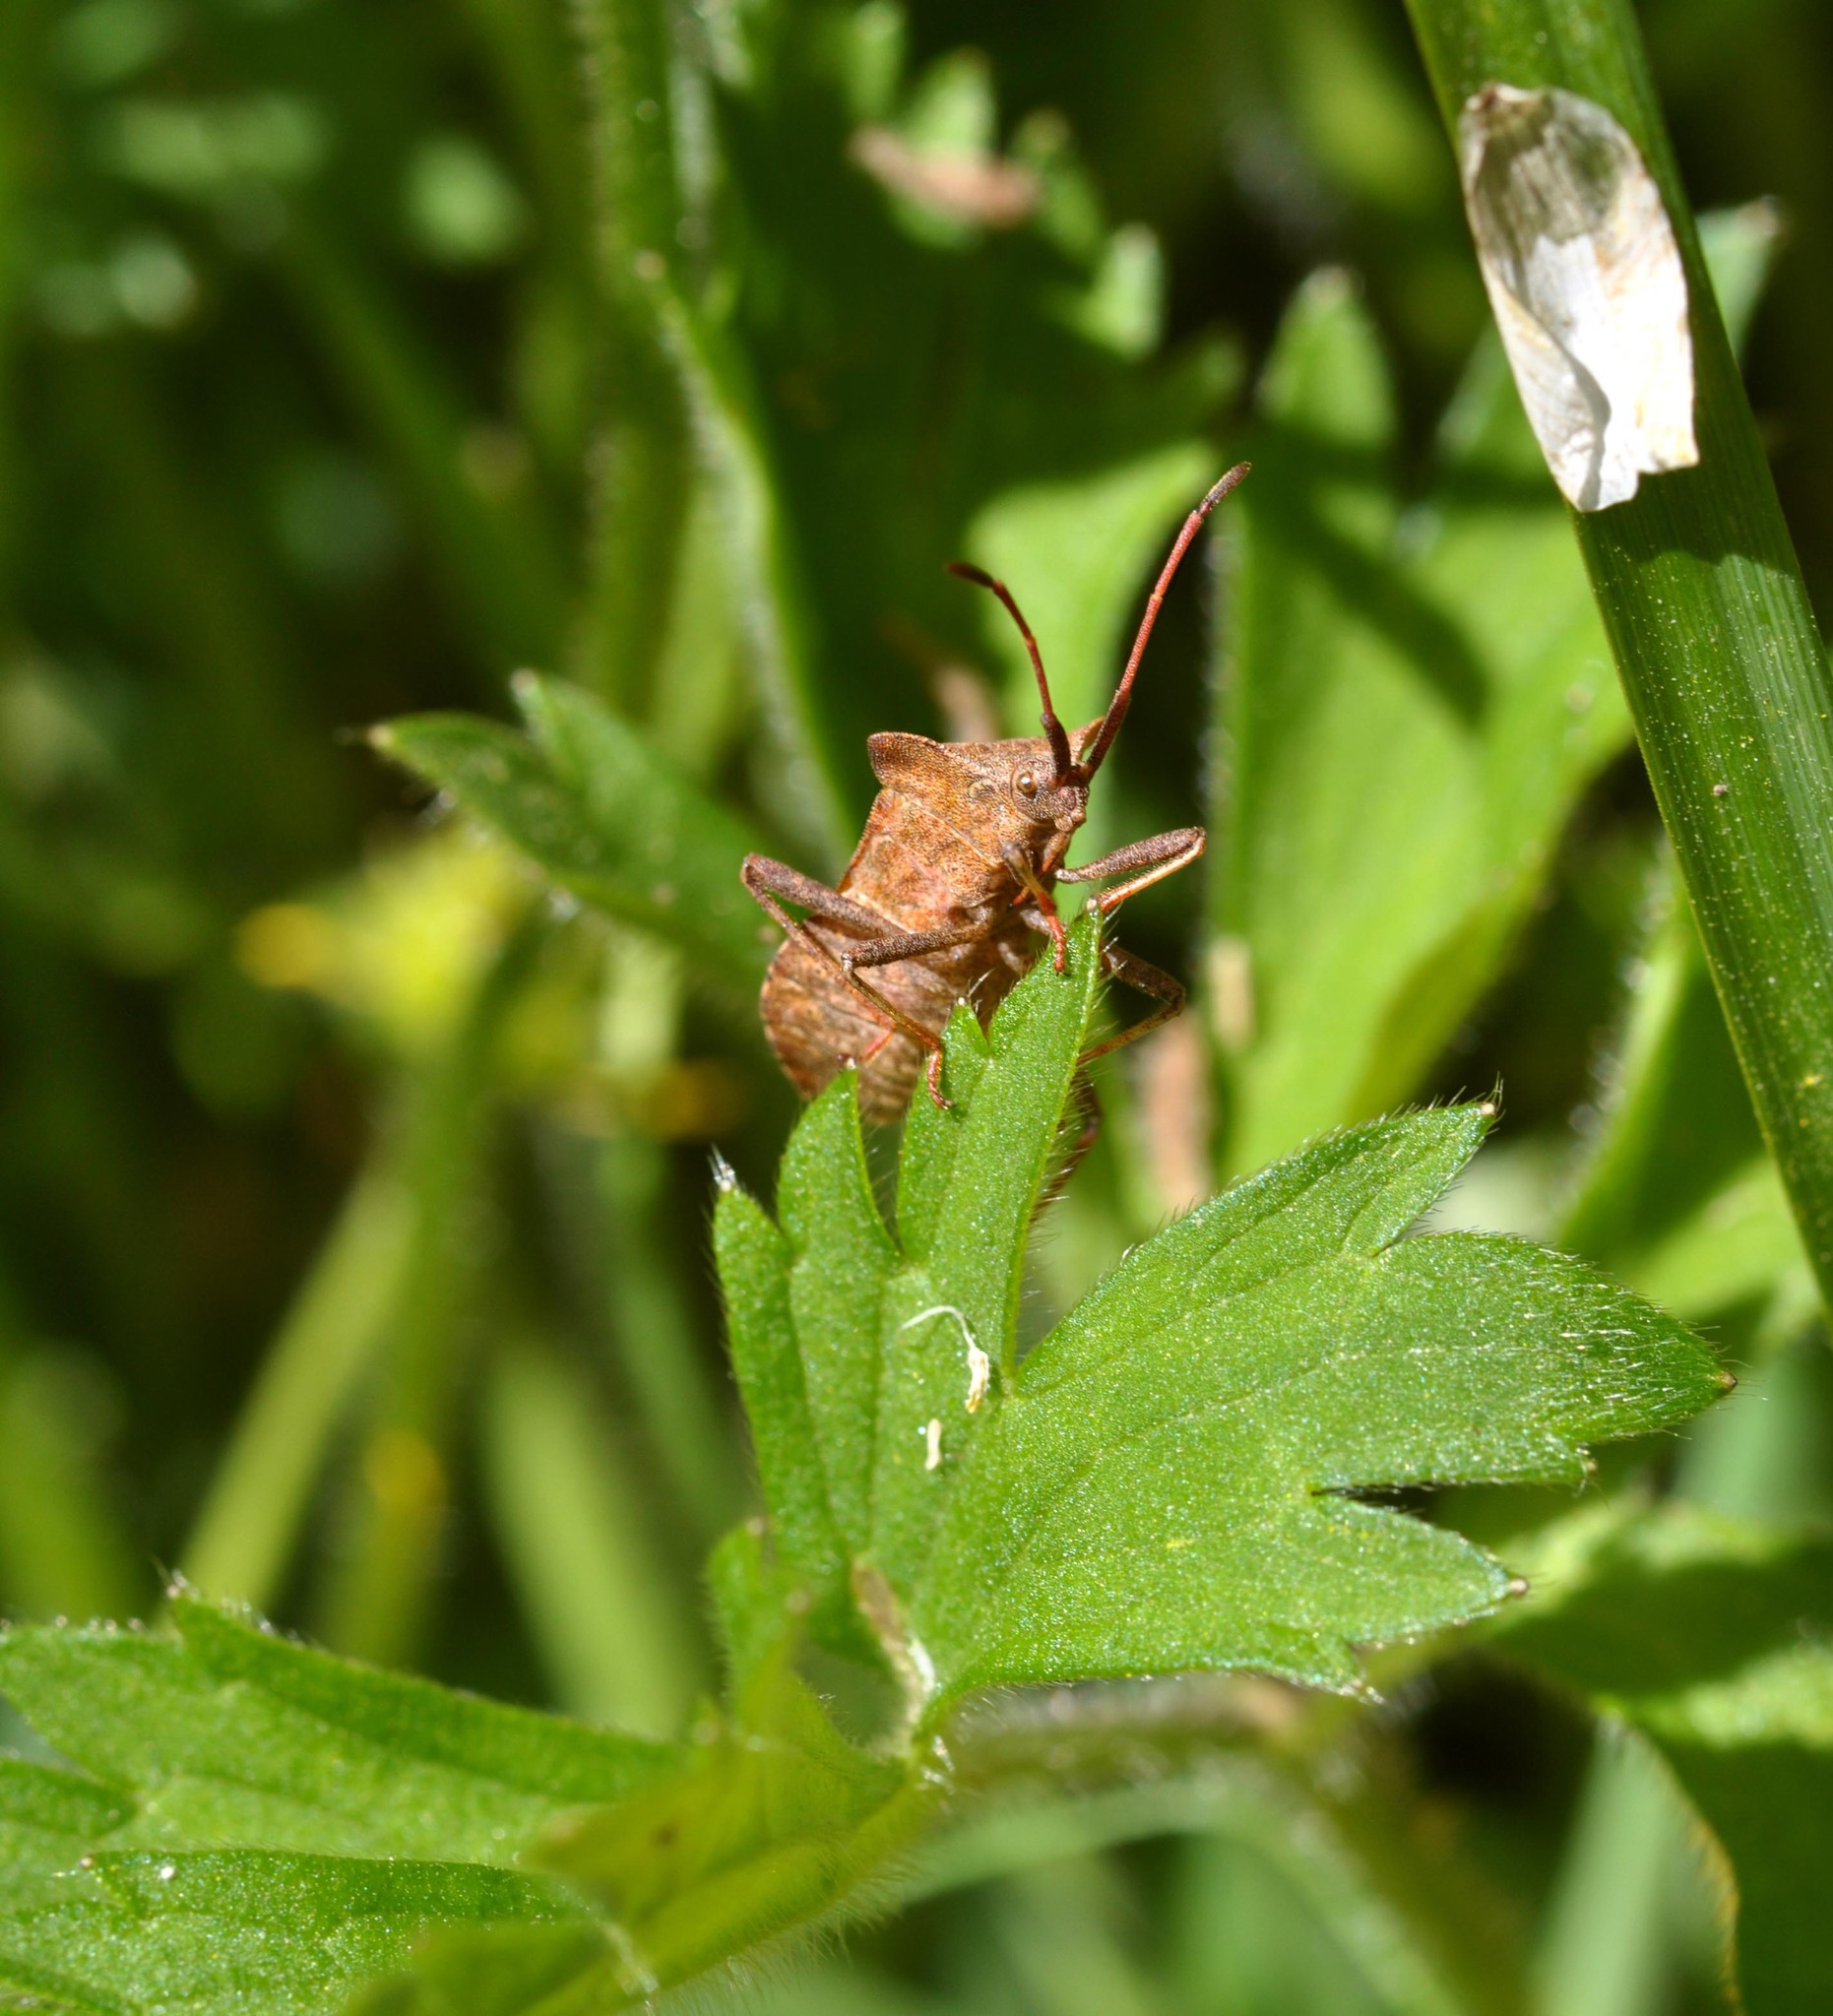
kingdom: Animalia
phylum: Arthropoda
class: Insecta
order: Hemiptera
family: Coreidae
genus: Coreus
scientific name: Coreus marginatus
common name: Dock bug
